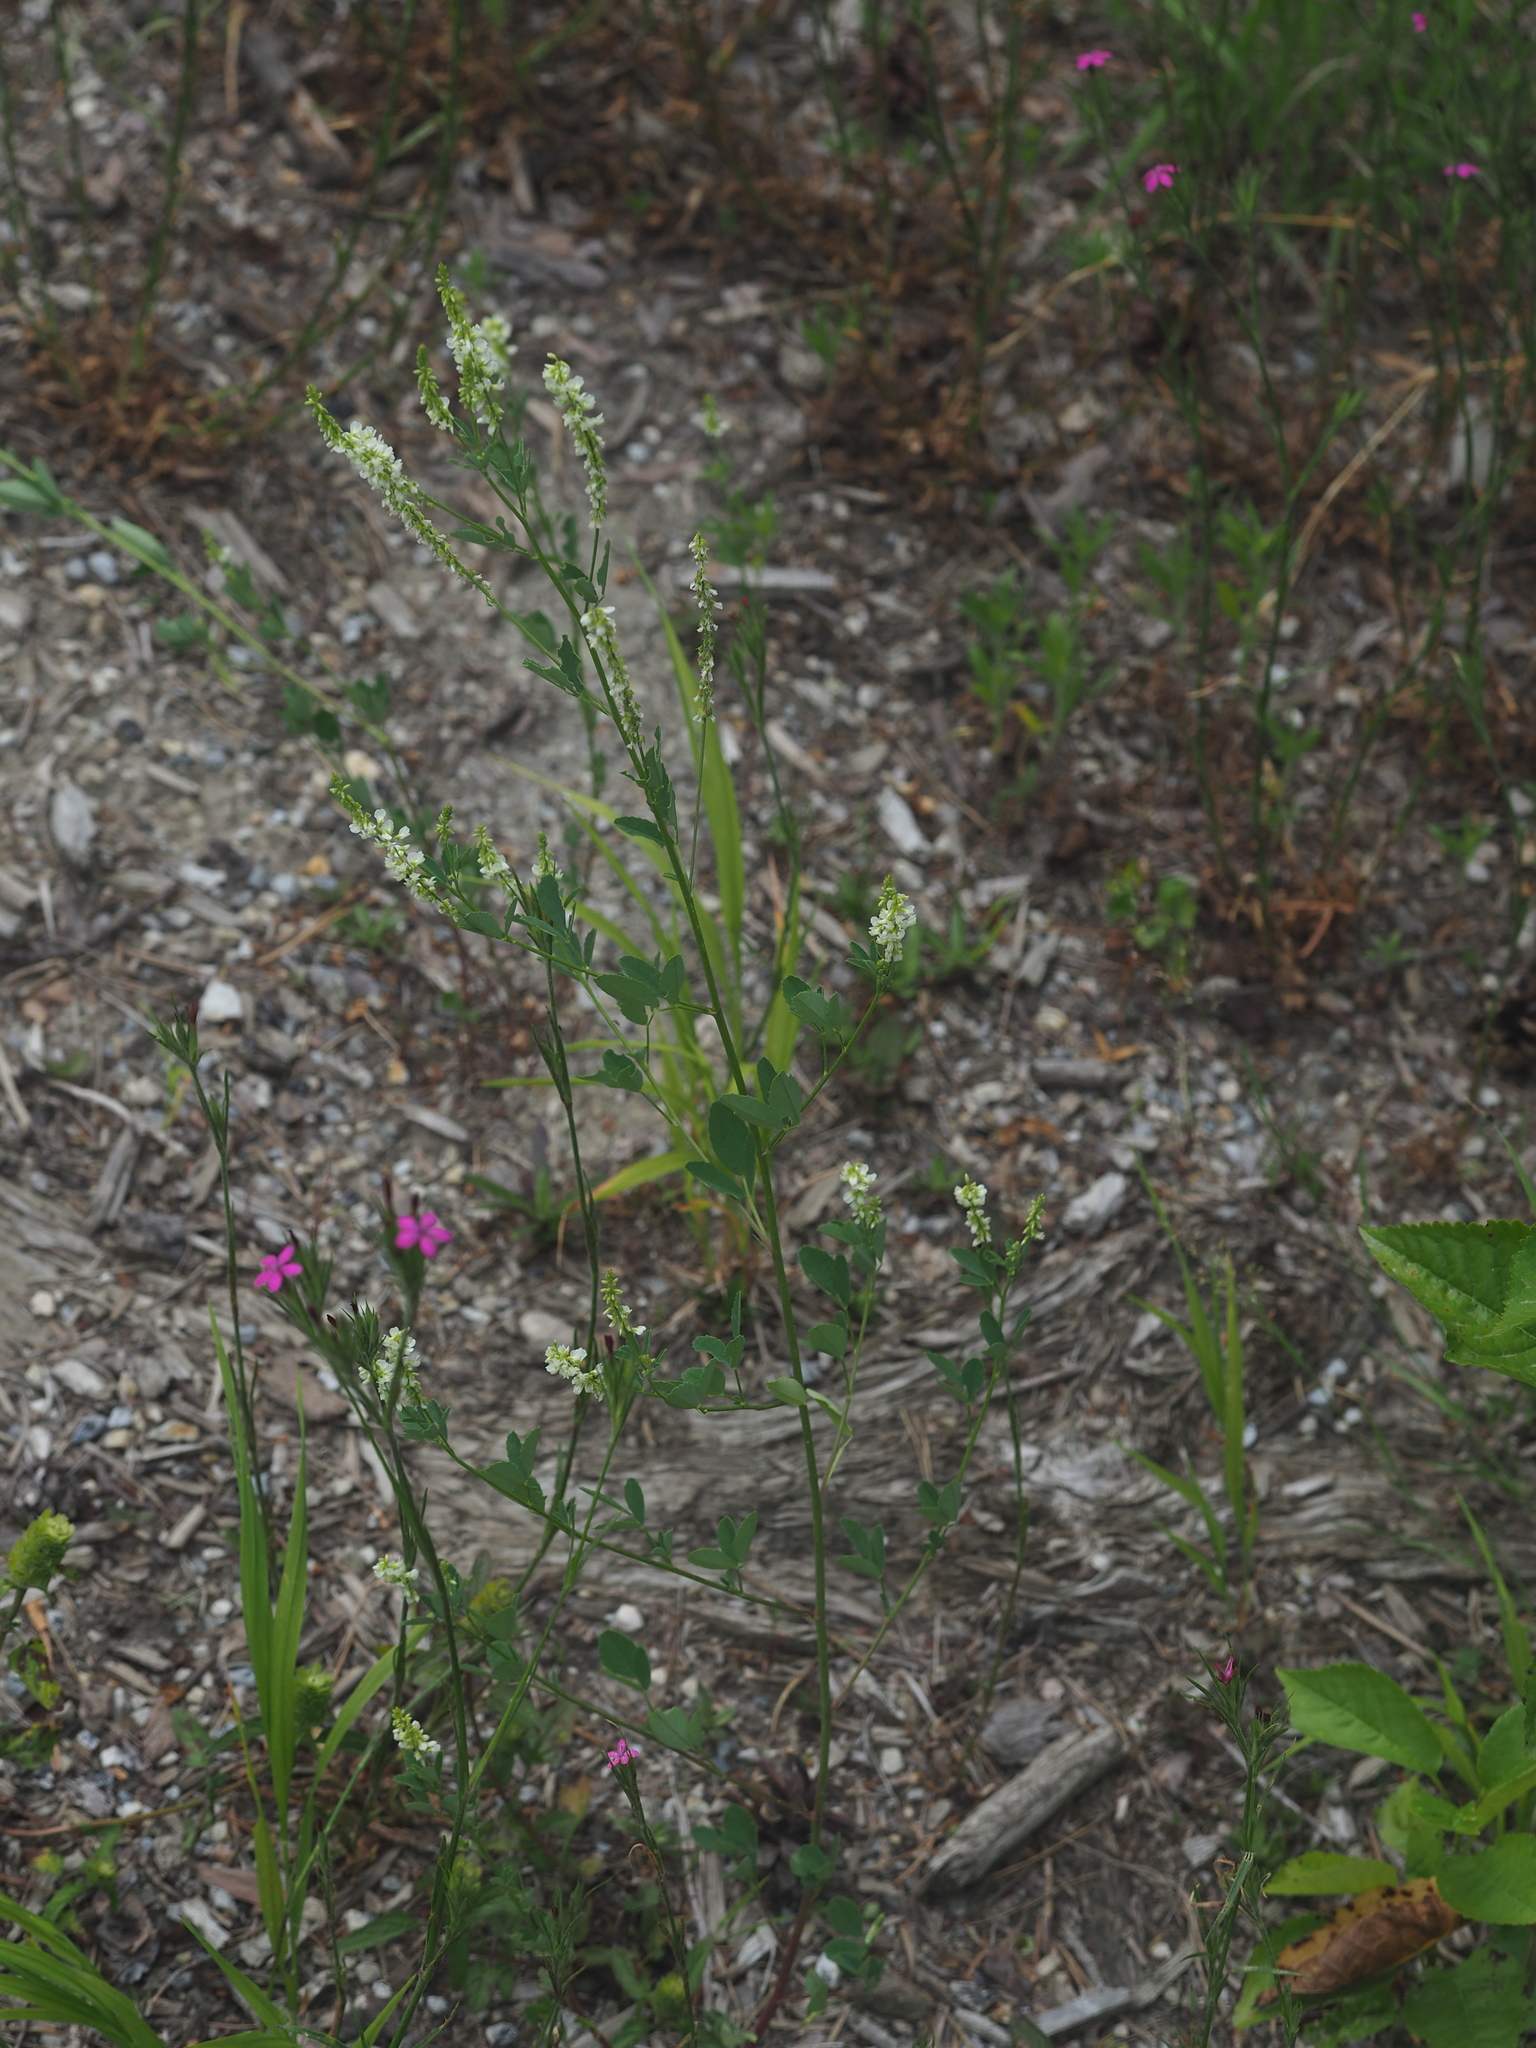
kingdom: Plantae
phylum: Tracheophyta
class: Magnoliopsida
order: Fabales
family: Fabaceae
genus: Melilotus
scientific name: Melilotus albus
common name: White melilot
